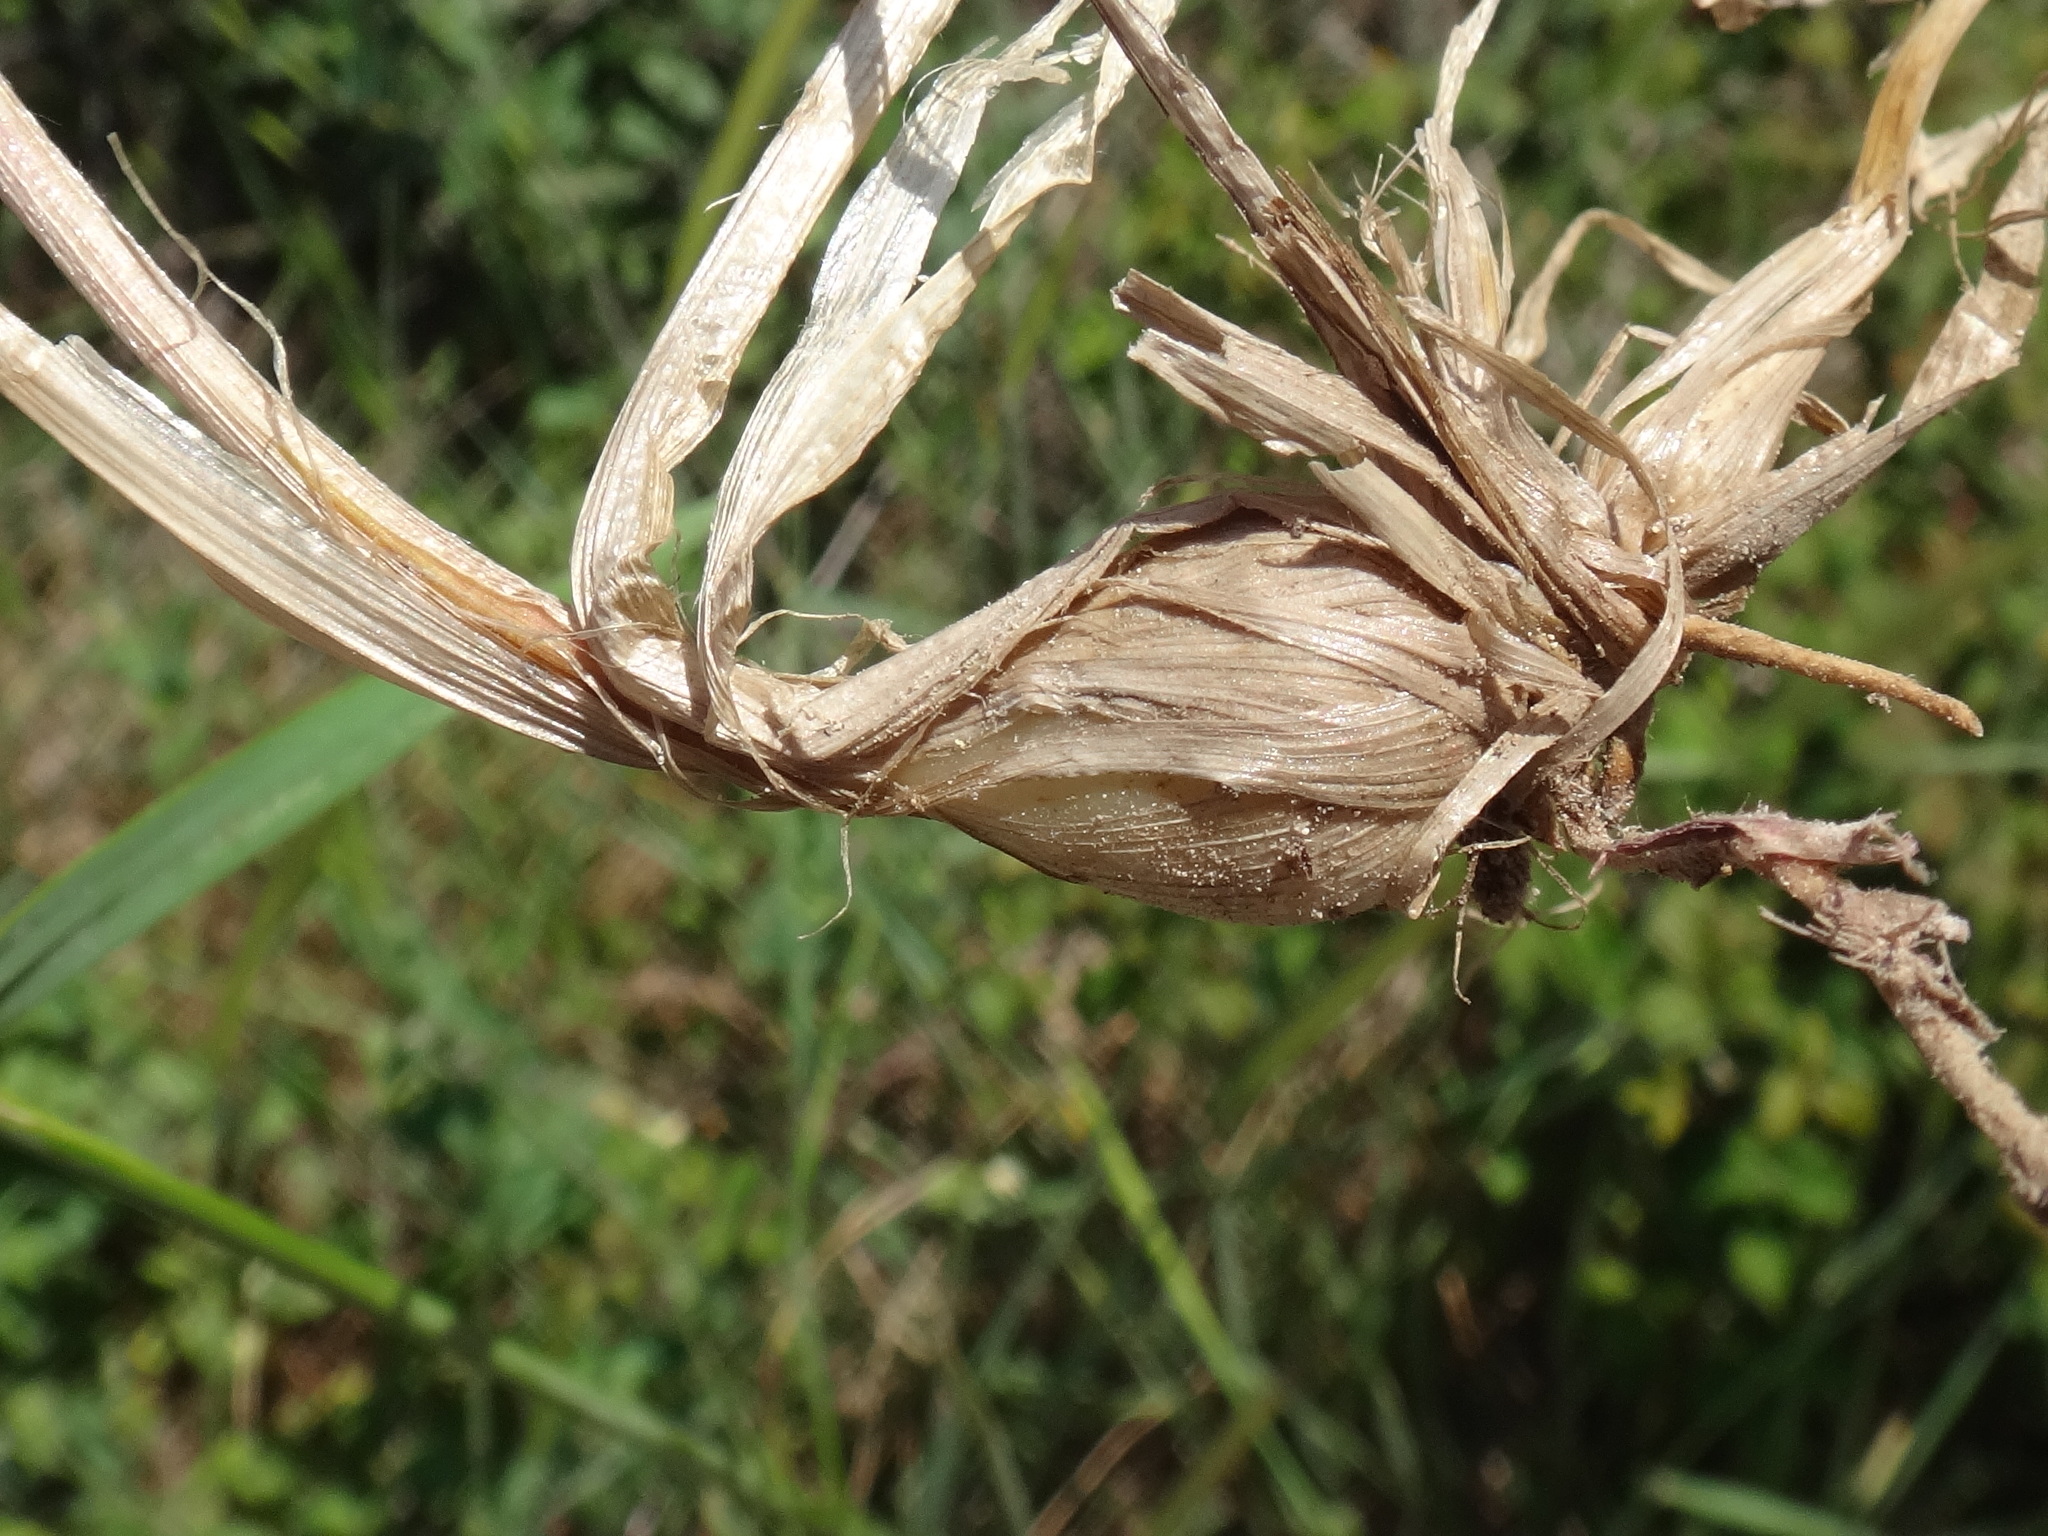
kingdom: Plantae
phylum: Tracheophyta
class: Liliopsida
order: Poales
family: Poaceae
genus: Hordeum
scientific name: Hordeum bulbosum
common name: Bulbous barley
